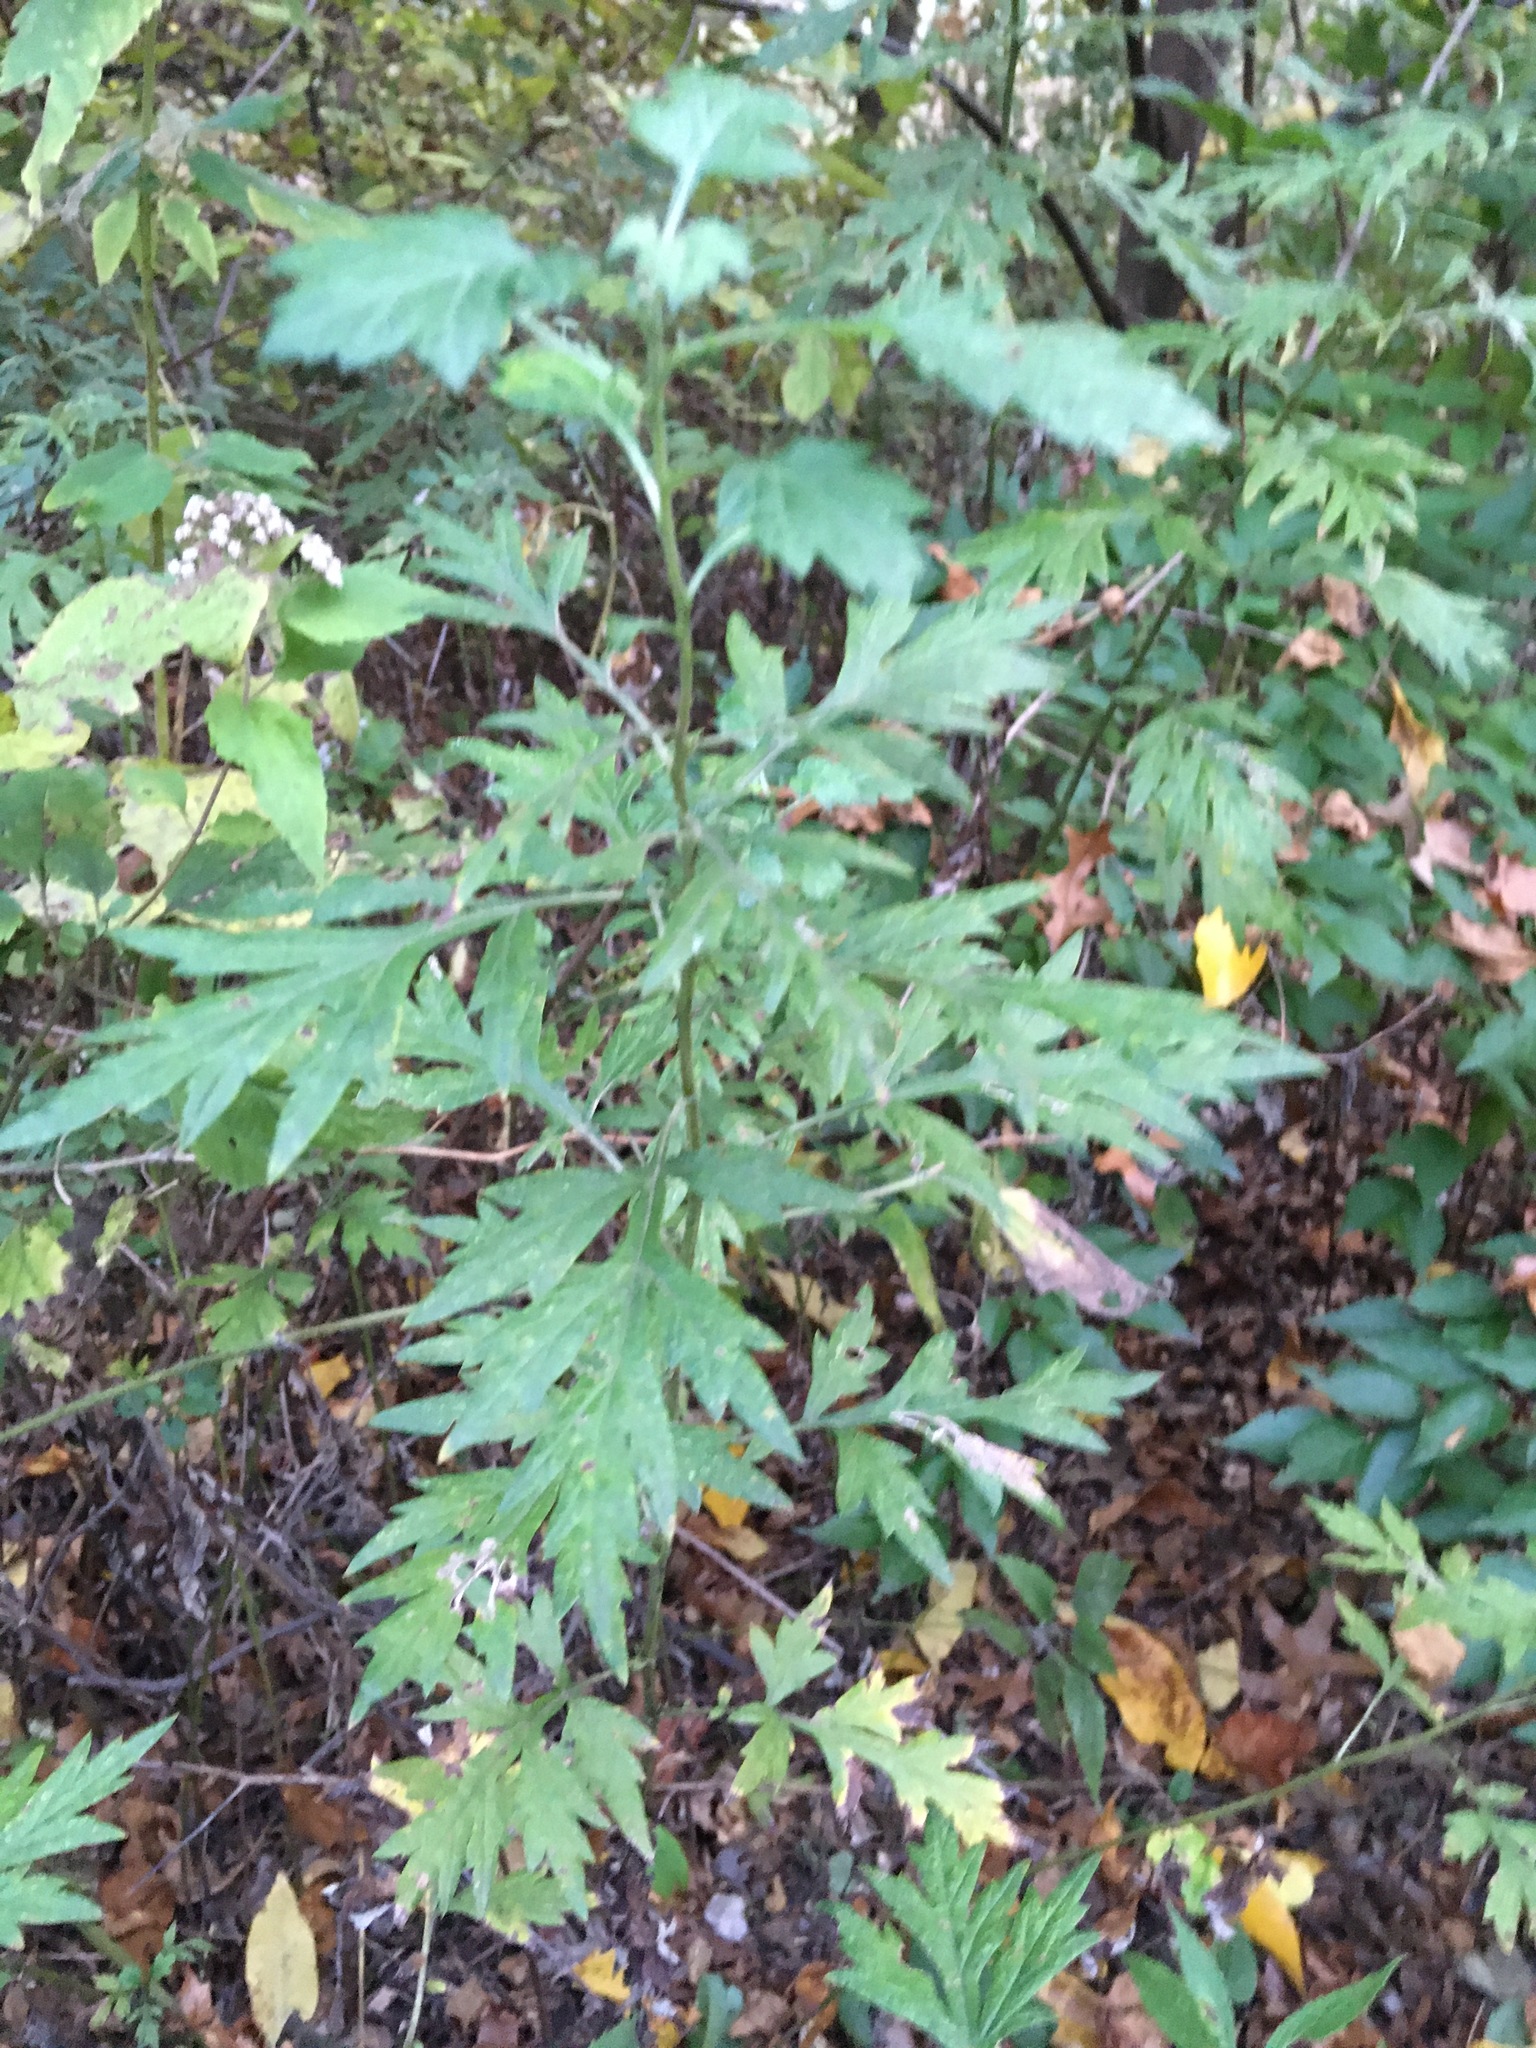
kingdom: Plantae
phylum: Tracheophyta
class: Magnoliopsida
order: Asterales
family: Asteraceae
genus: Artemisia
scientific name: Artemisia vulgaris
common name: Mugwort
